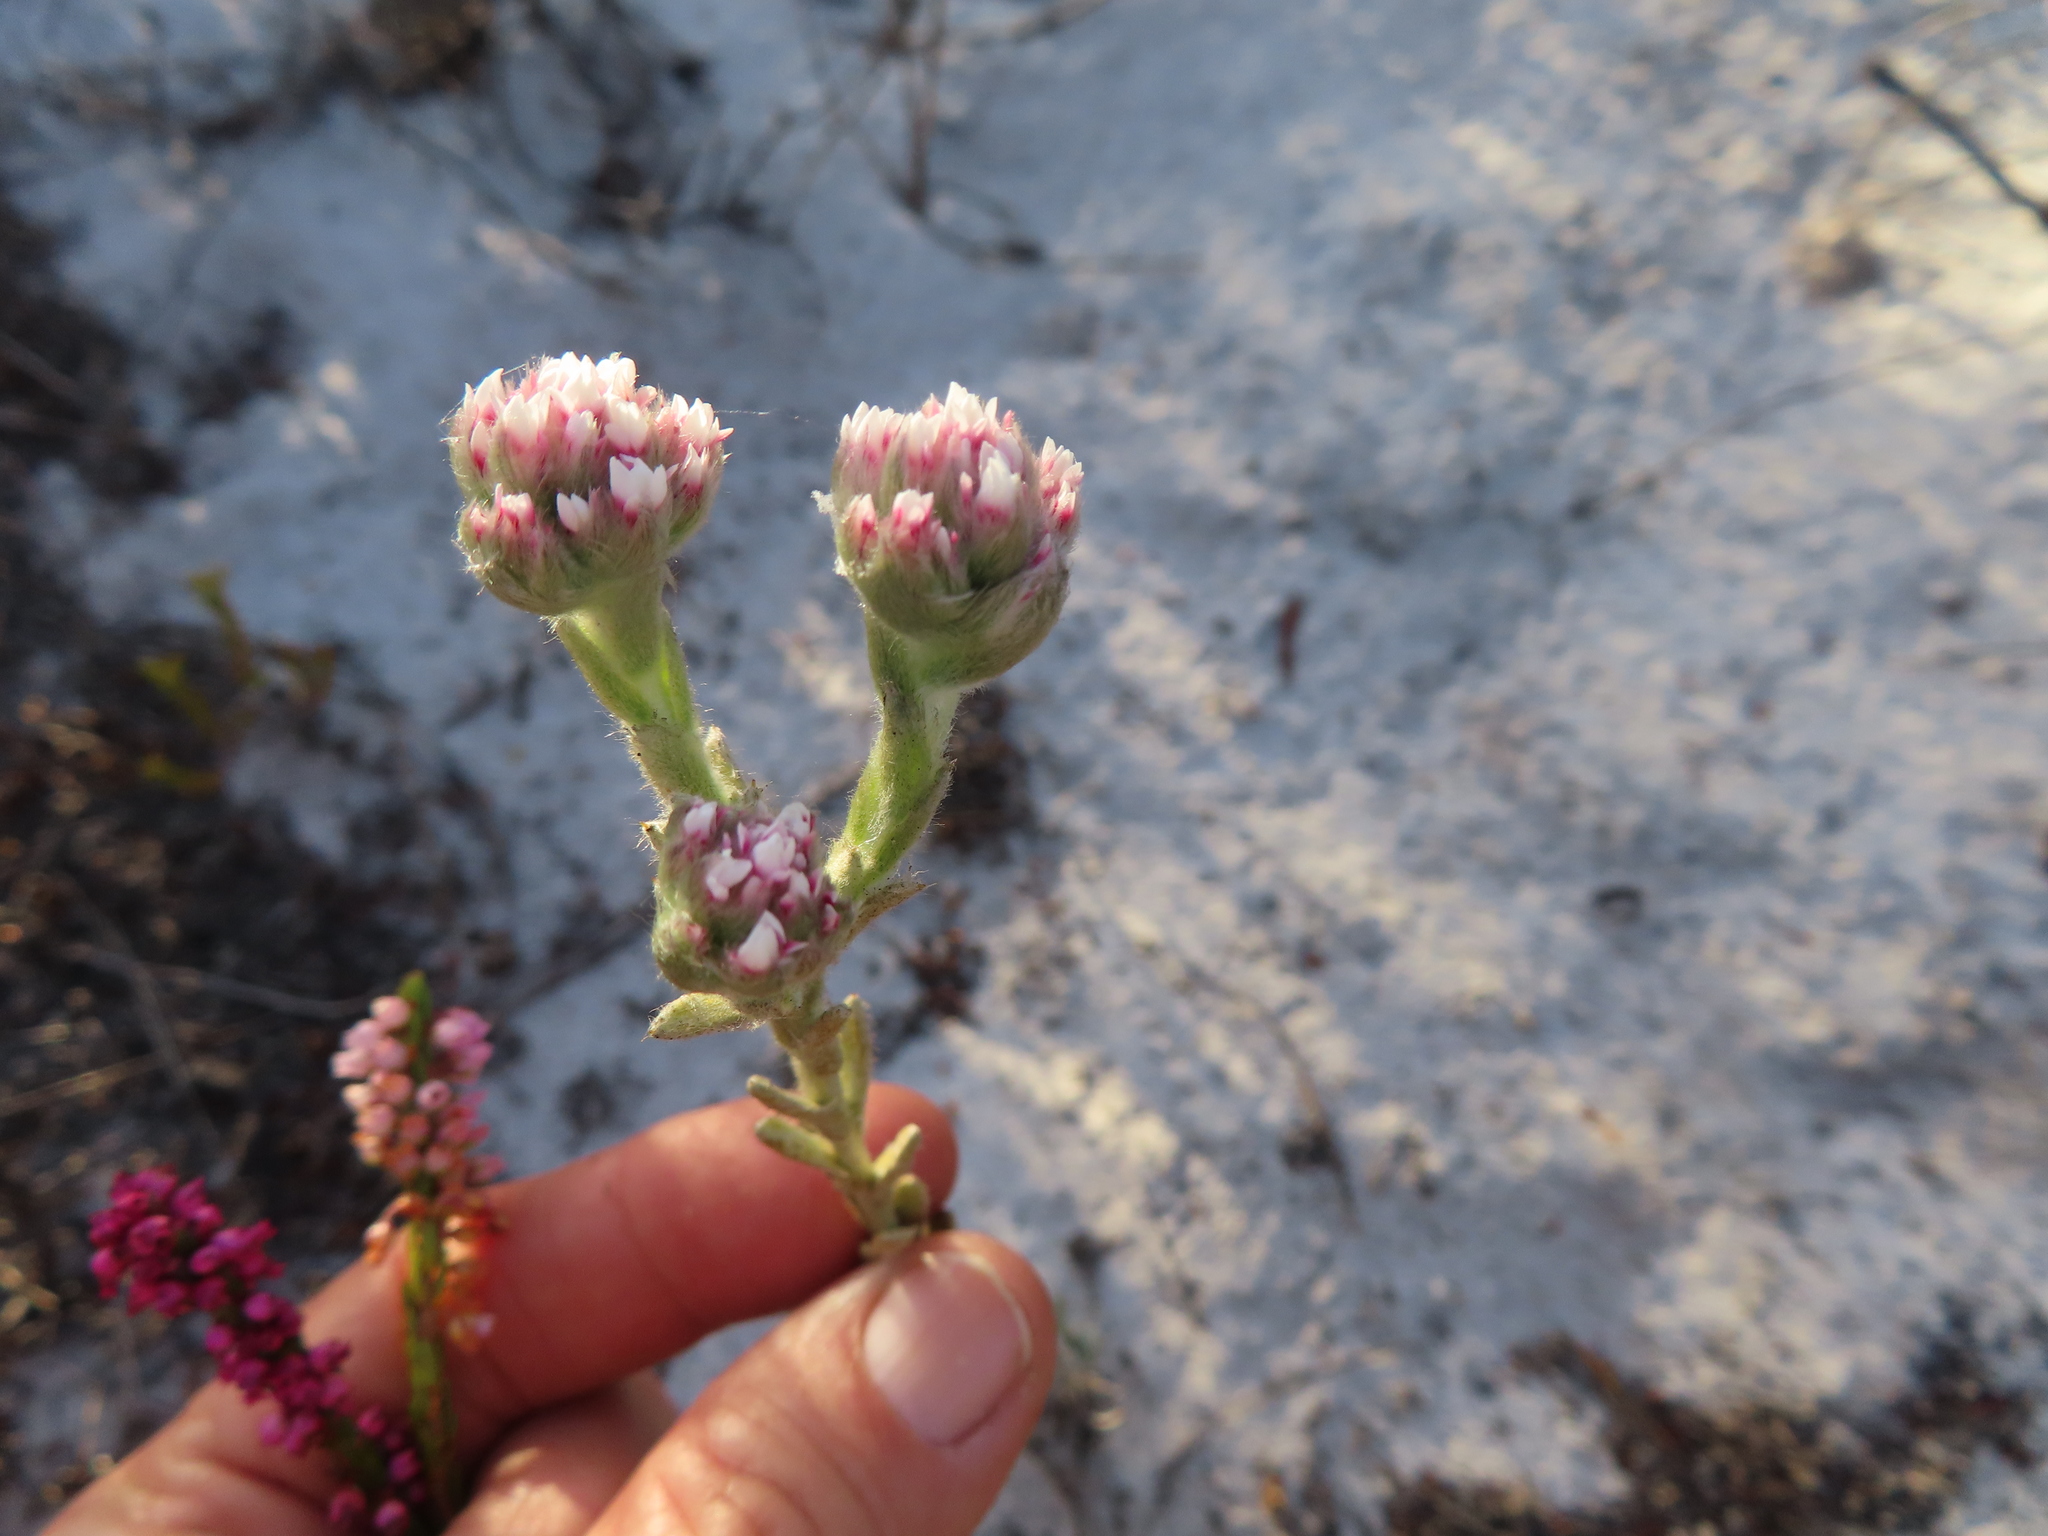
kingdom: Plantae
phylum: Tracheophyta
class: Magnoliopsida
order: Asterales
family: Asteraceae
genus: Petalacte
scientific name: Petalacte coronata
